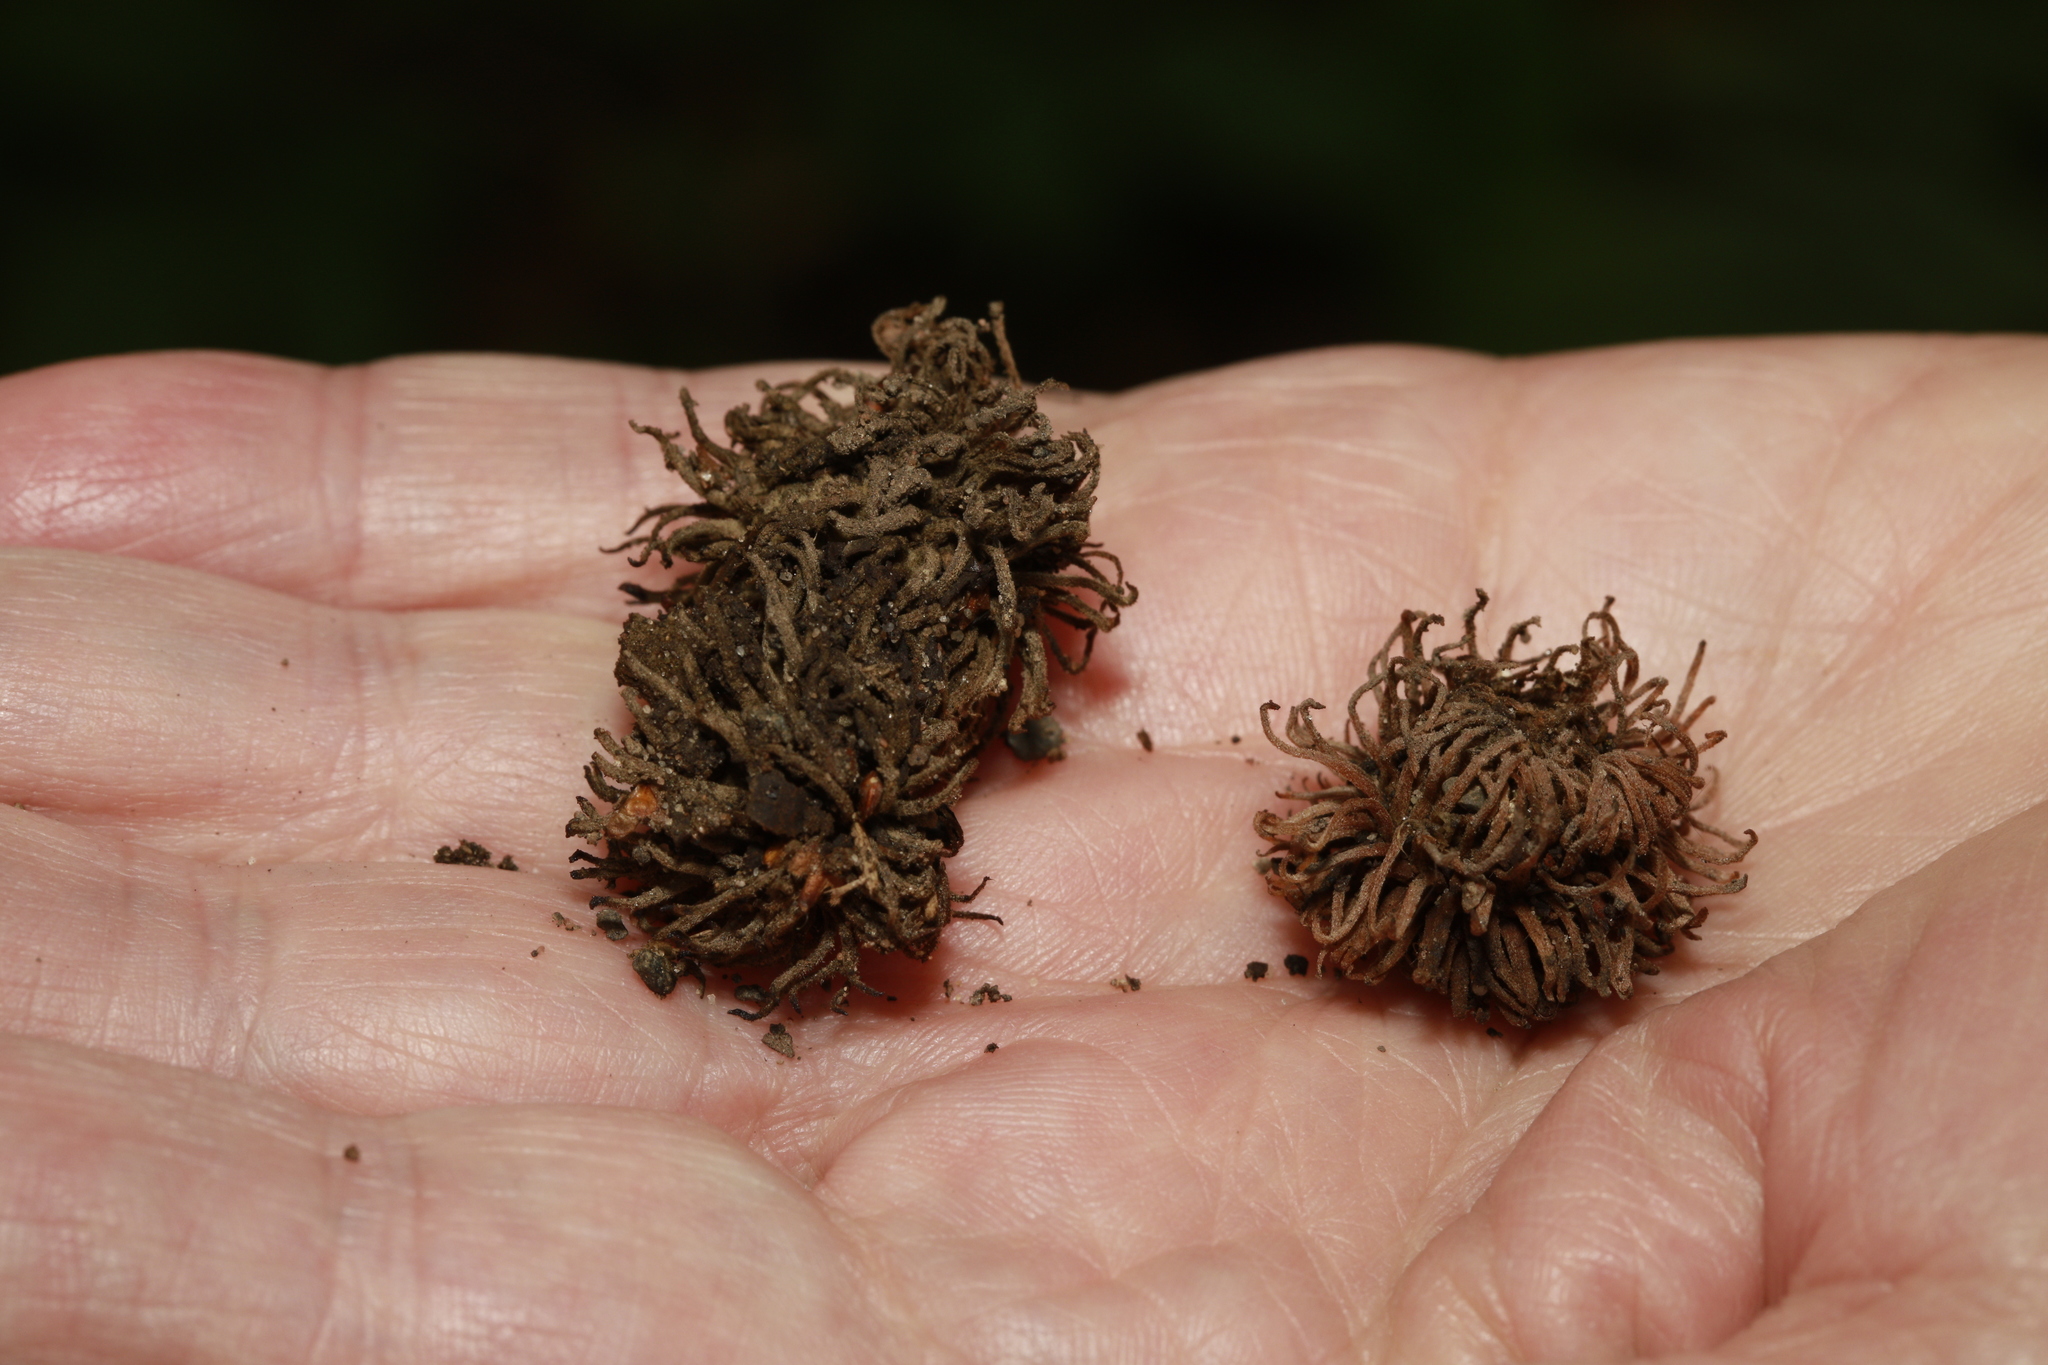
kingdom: Plantae
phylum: Tracheophyta
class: Magnoliopsida
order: Fagales
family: Fagaceae
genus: Quercus
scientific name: Quercus cerris
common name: Turkey oak
